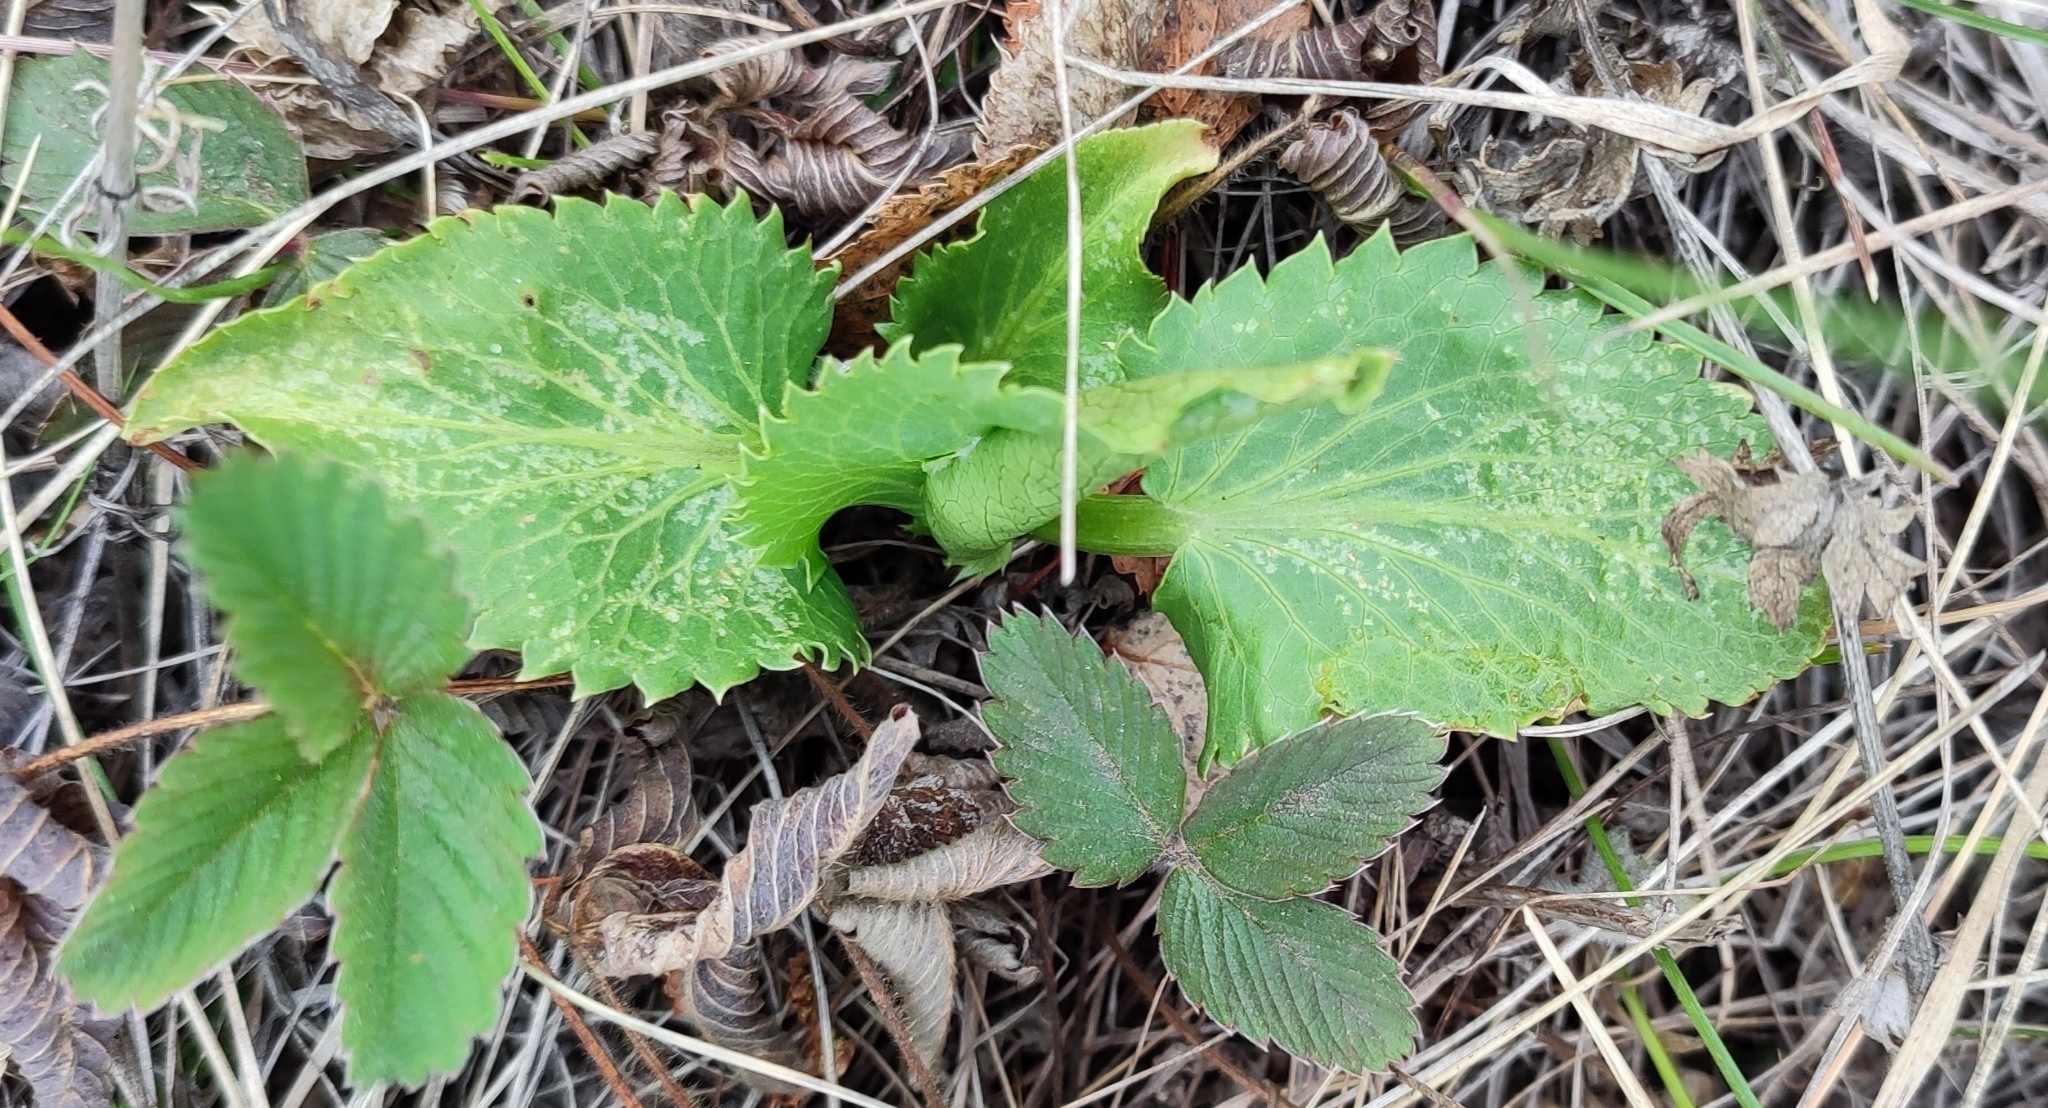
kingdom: Plantae
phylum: Tracheophyta
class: Magnoliopsida
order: Apiales
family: Apiaceae
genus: Eryngium
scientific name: Eryngium planum
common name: Blue eryngo
